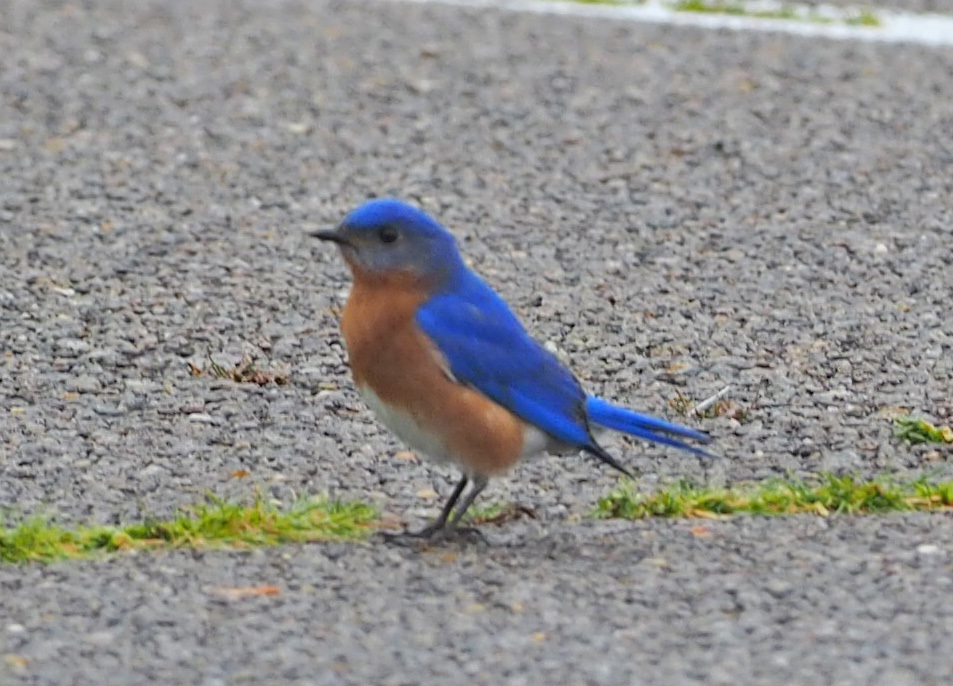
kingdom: Animalia
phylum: Chordata
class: Aves
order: Passeriformes
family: Turdidae
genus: Sialia
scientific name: Sialia sialis
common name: Eastern bluebird
